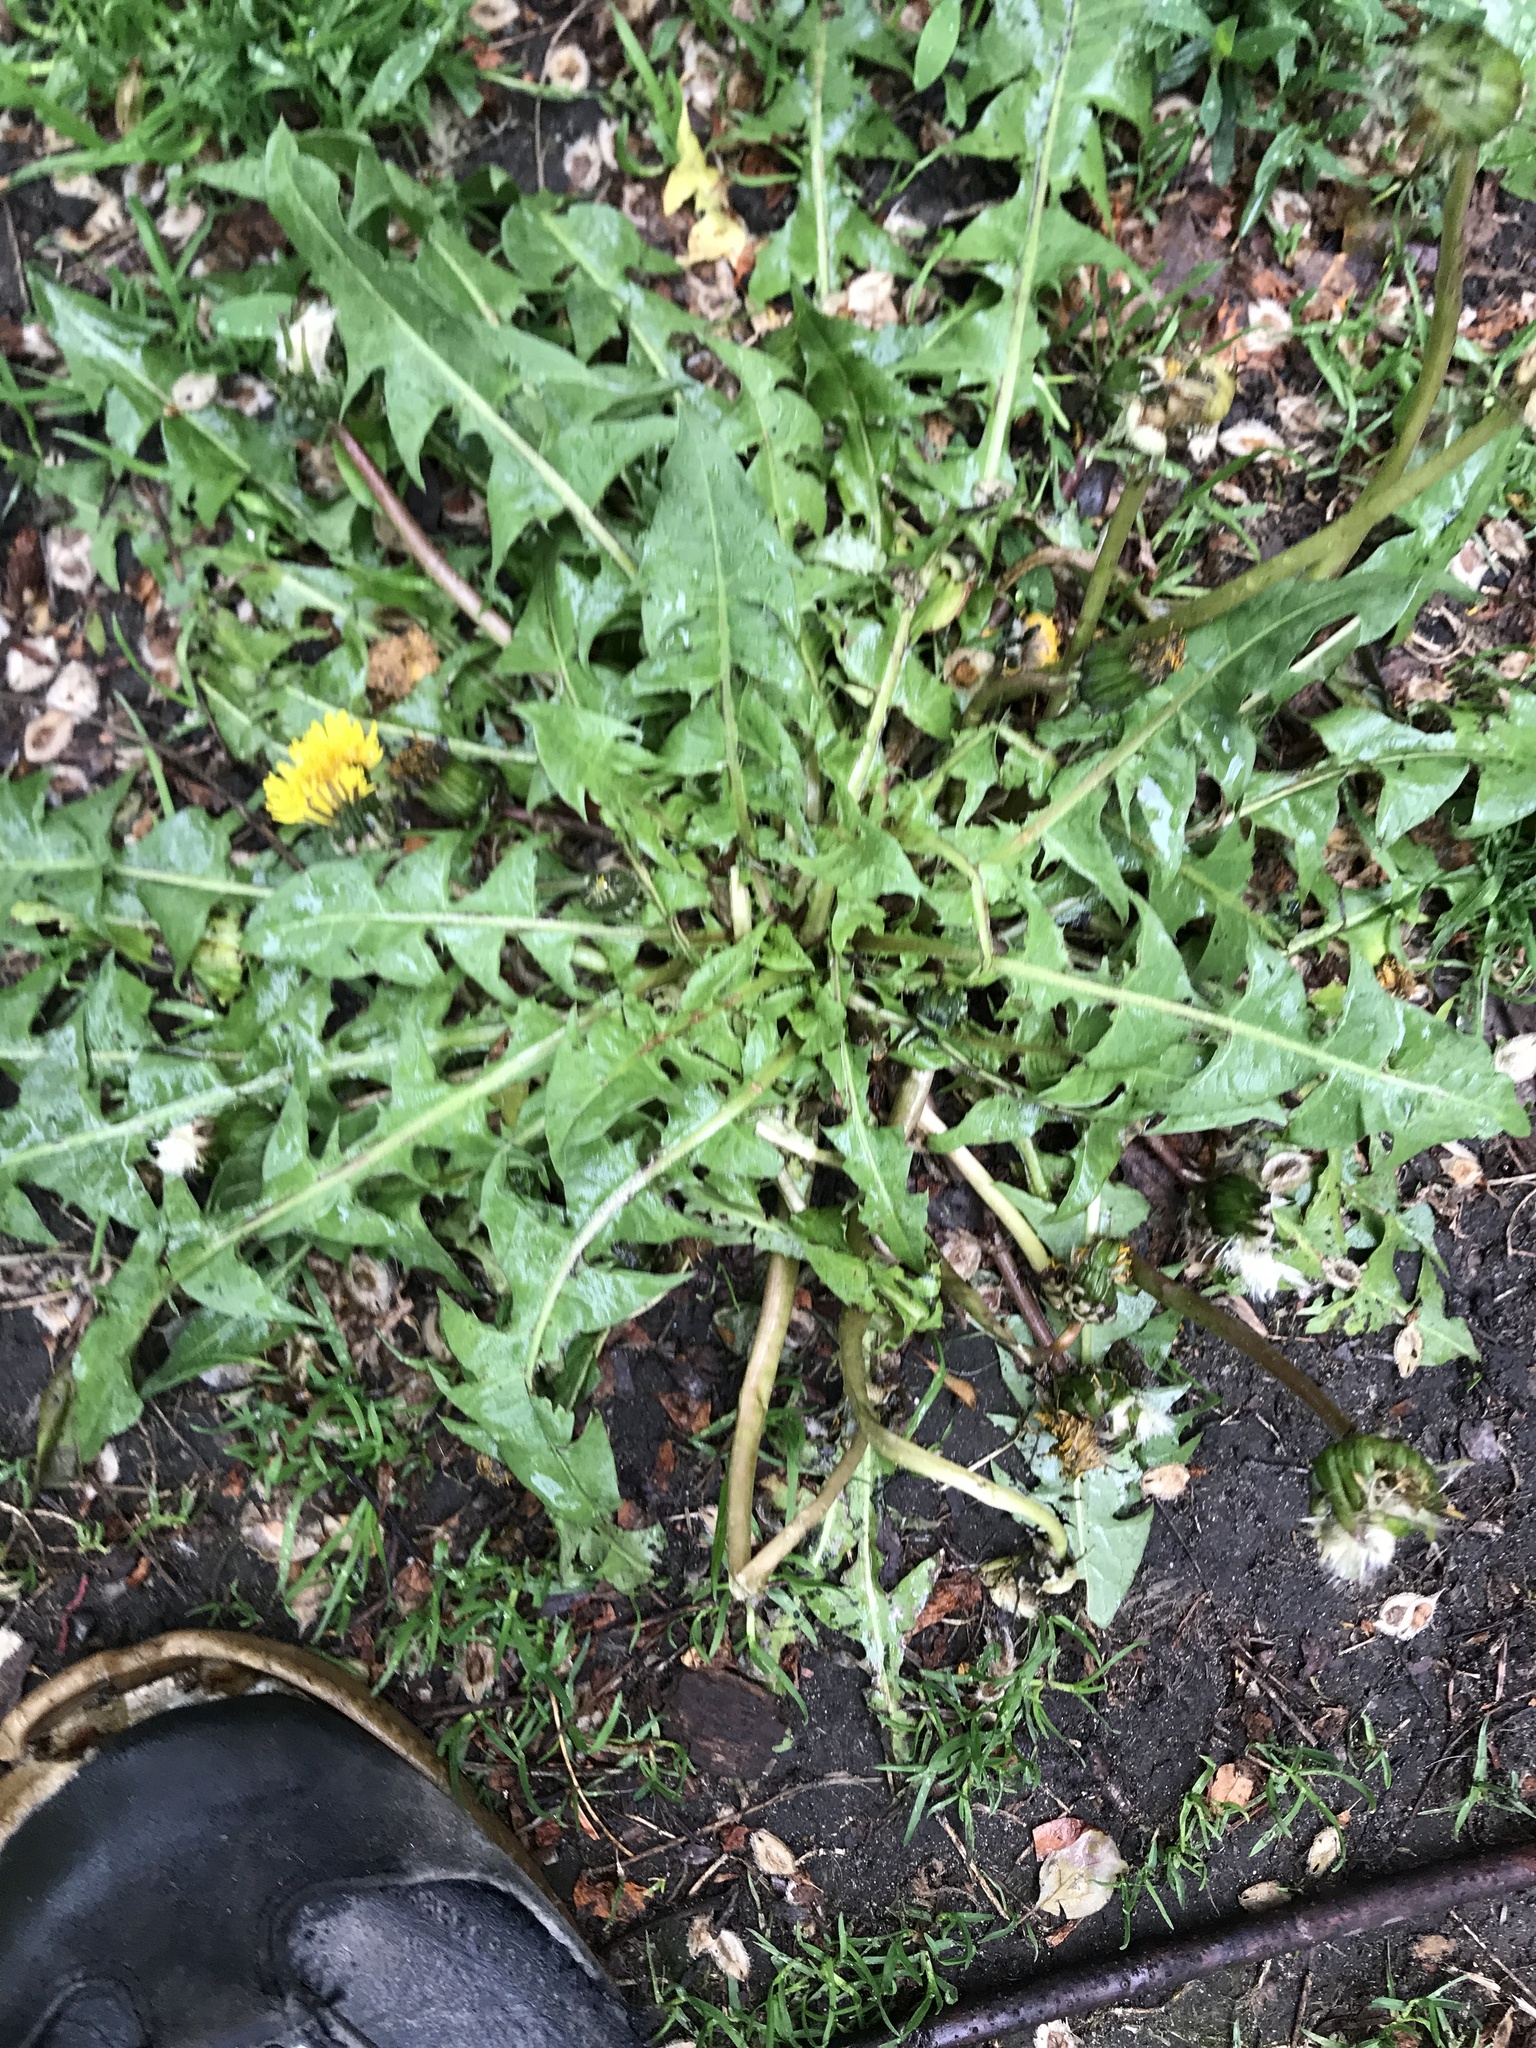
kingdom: Plantae
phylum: Tracheophyta
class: Magnoliopsida
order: Asterales
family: Asteraceae
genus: Taraxacum
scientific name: Taraxacum officinale
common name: Common dandelion
